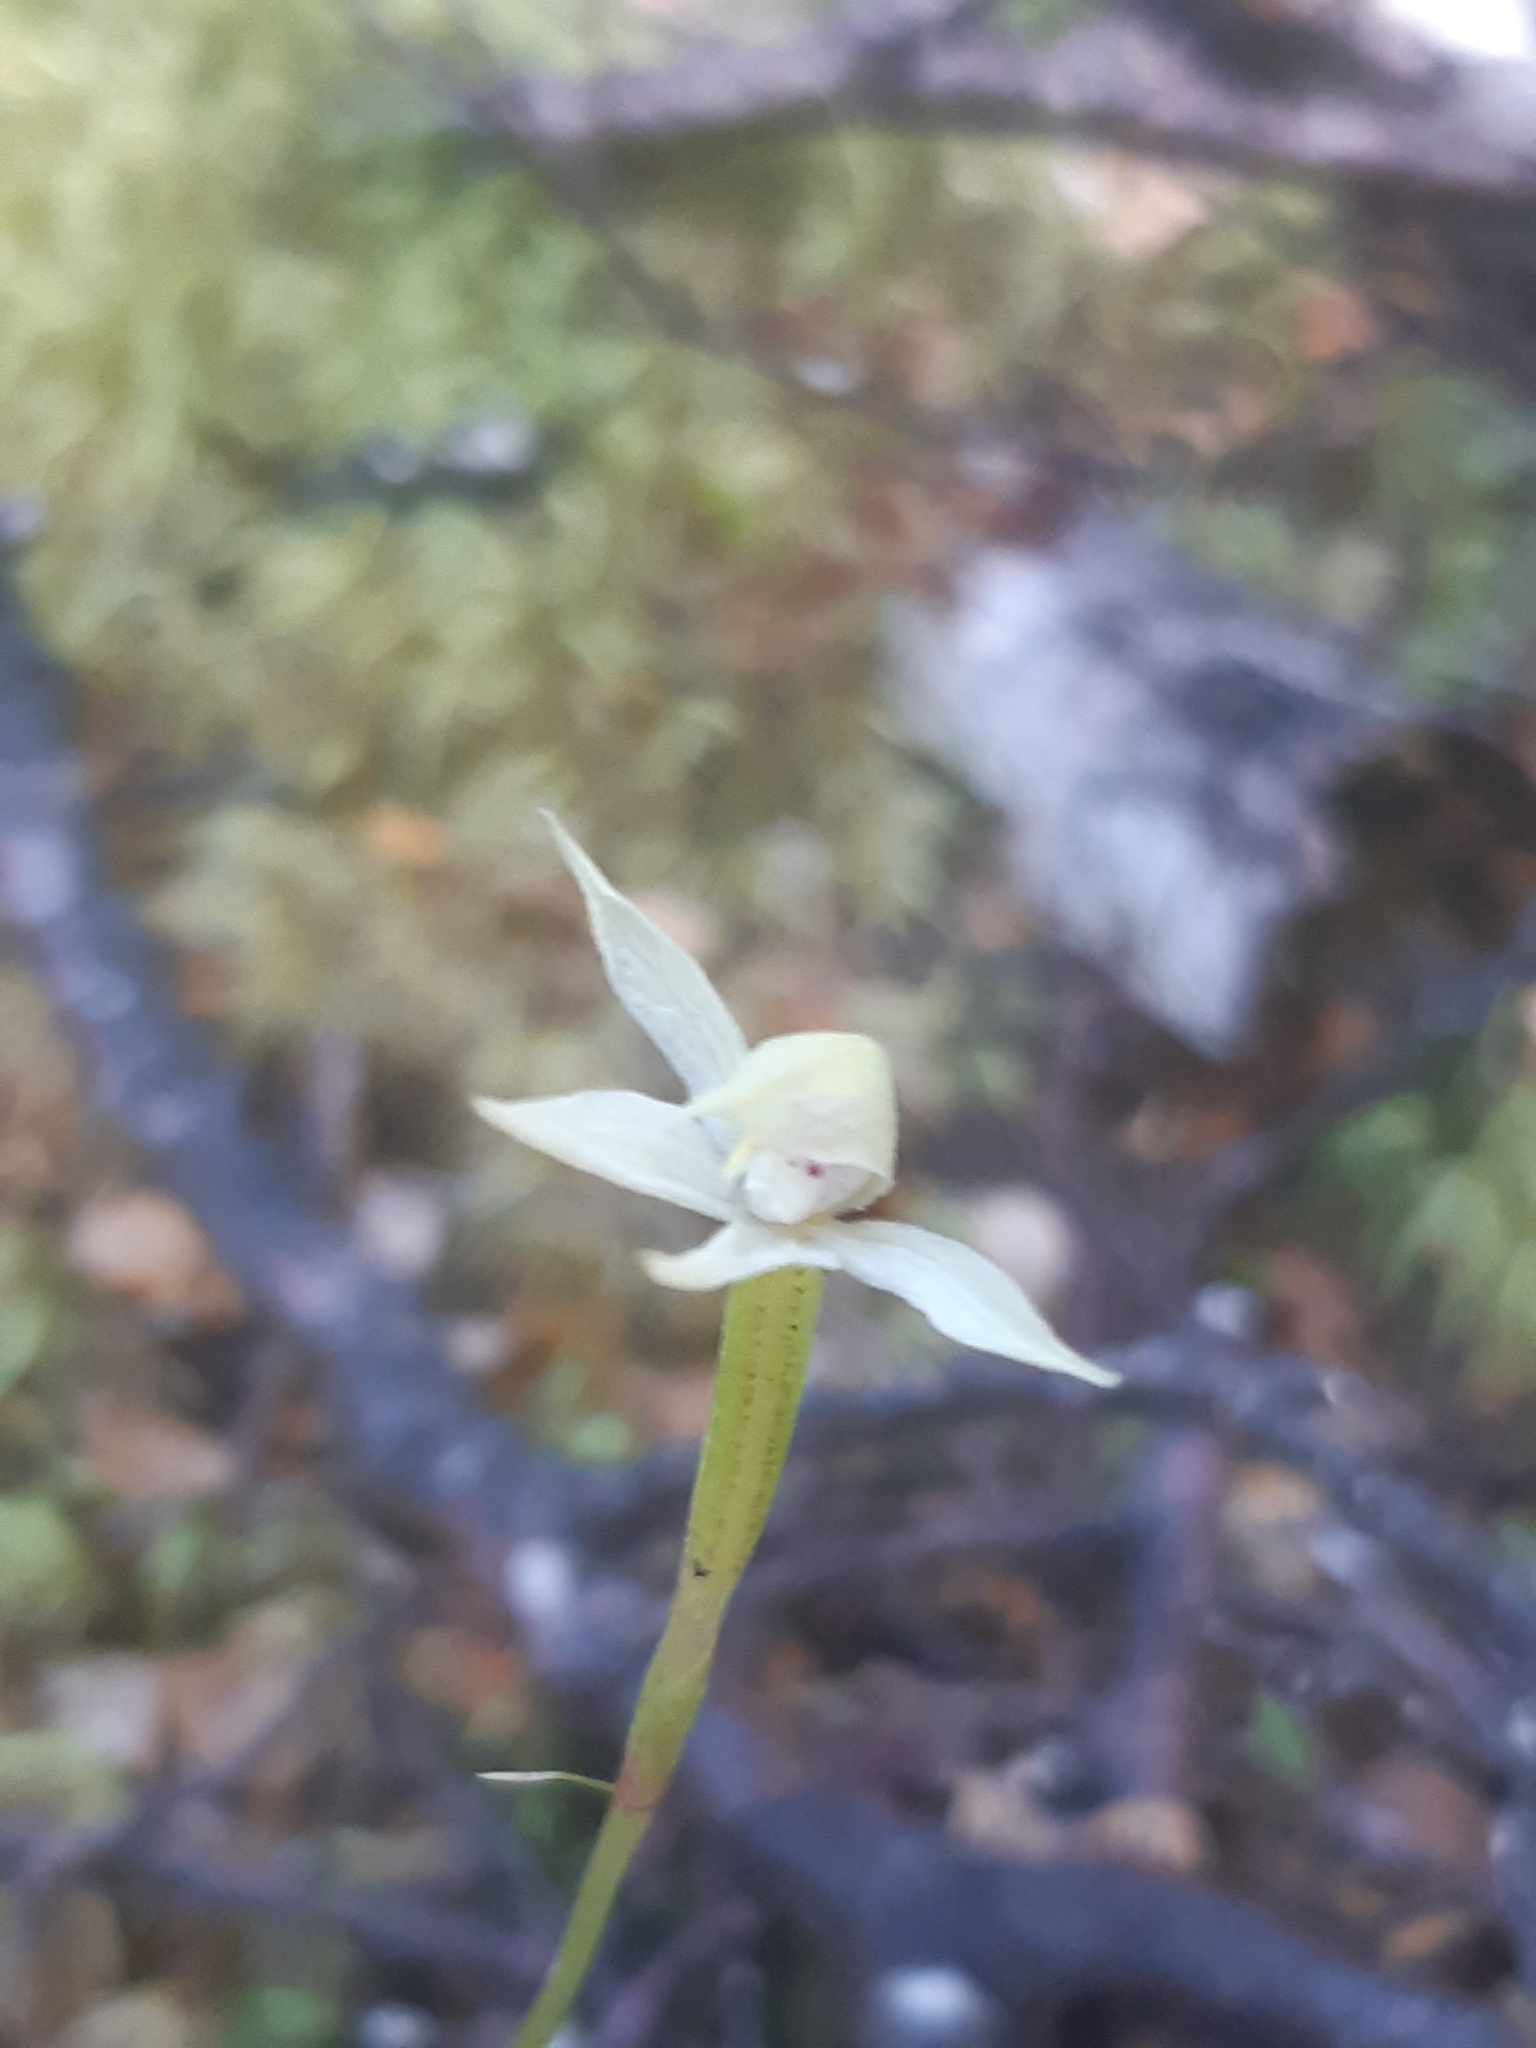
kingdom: Plantae
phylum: Tracheophyta
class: Liliopsida
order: Asparagales
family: Orchidaceae
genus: Adenochilus
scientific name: Adenochilus gracilis
